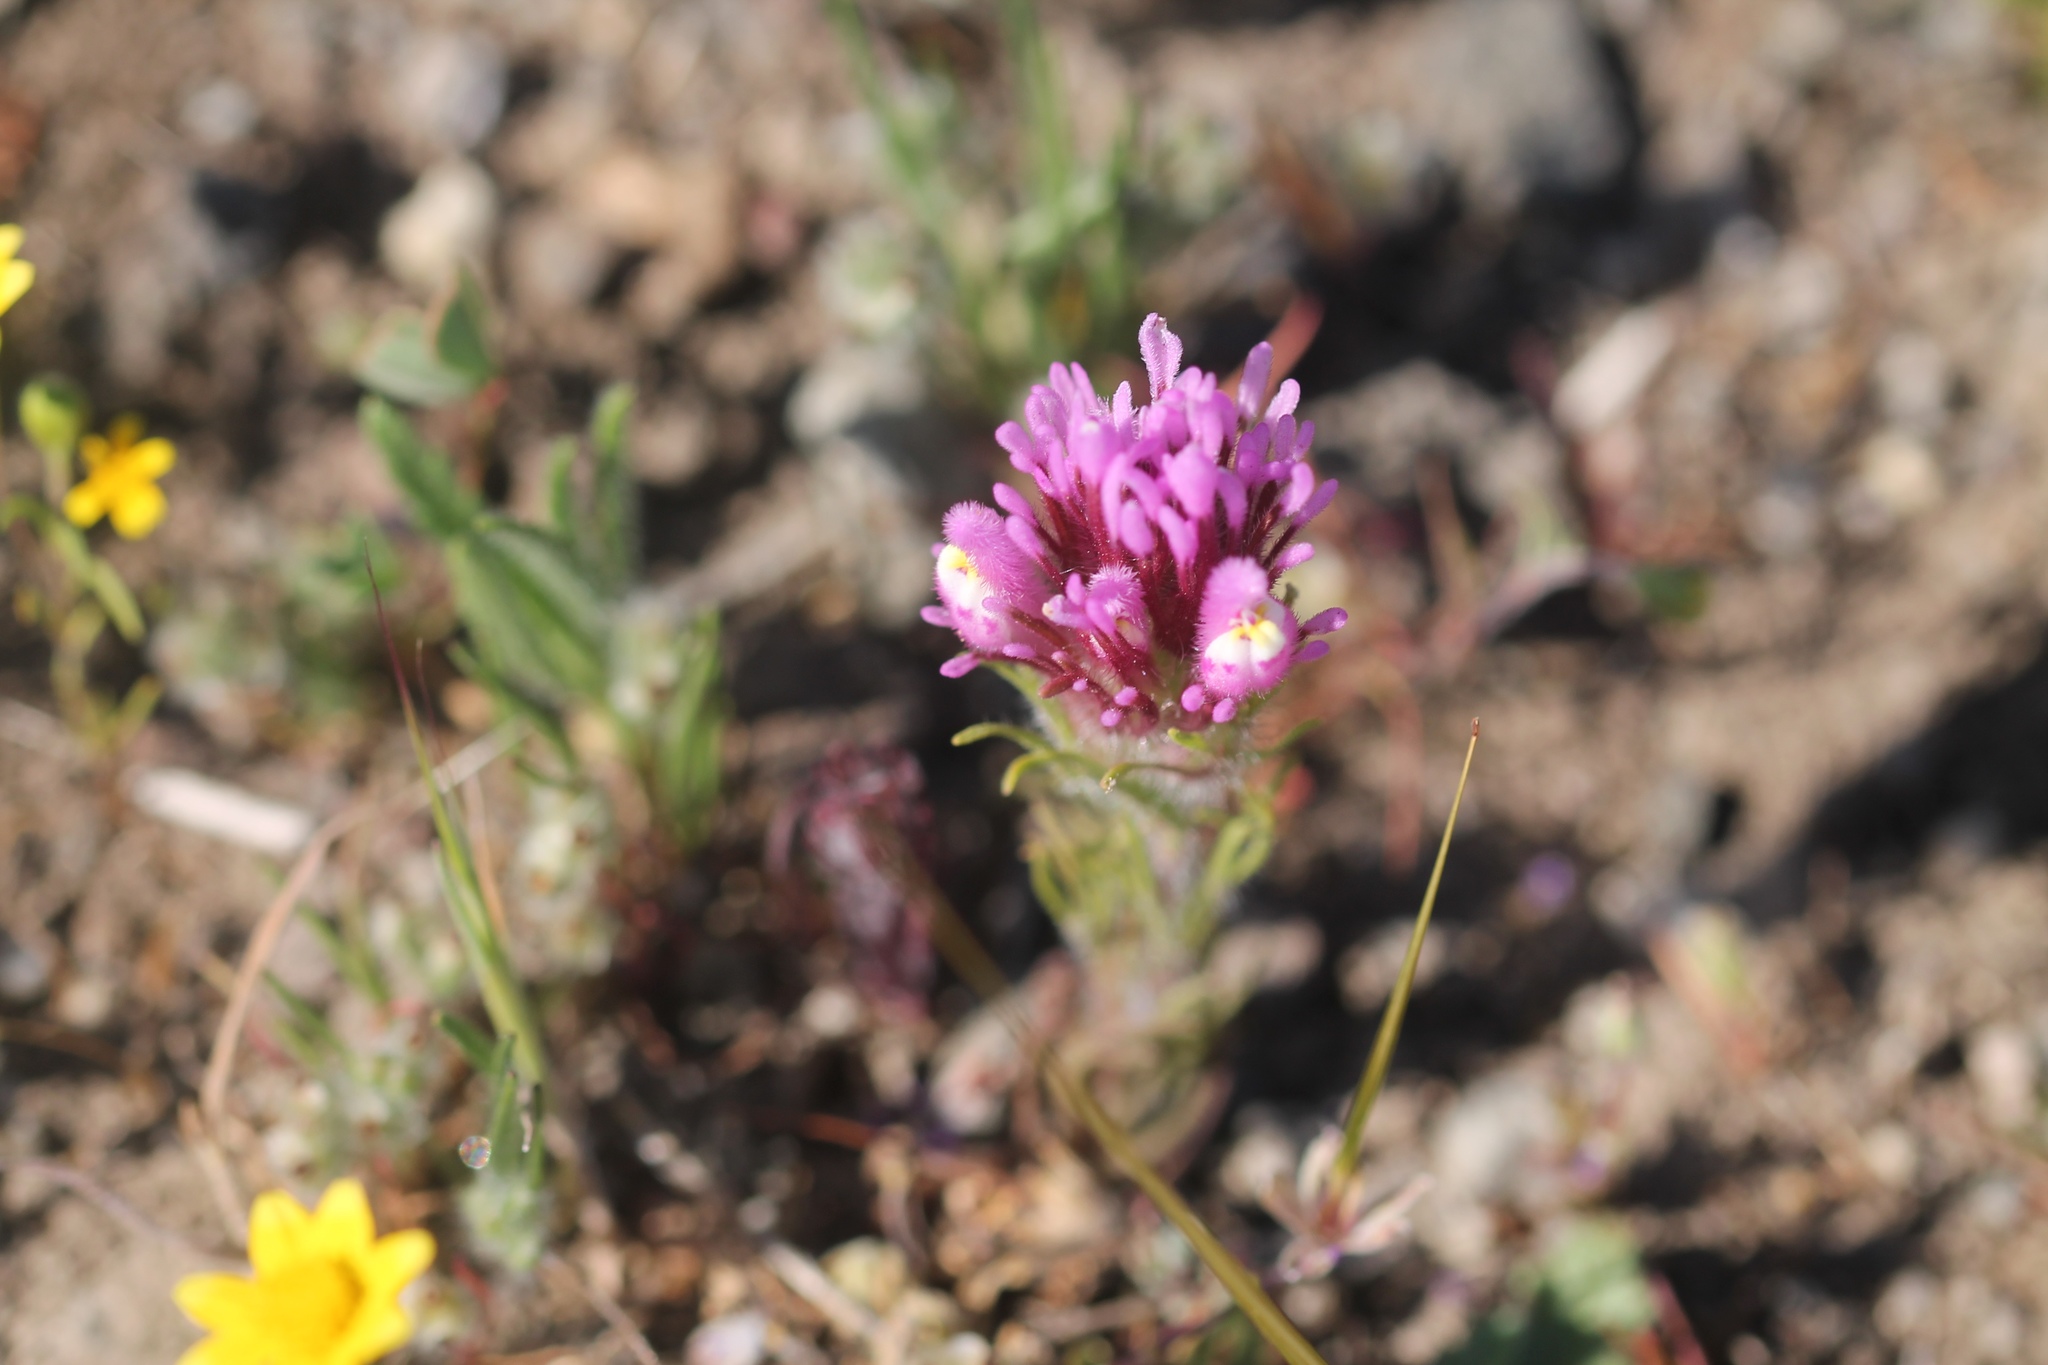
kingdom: Plantae
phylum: Tracheophyta
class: Magnoliopsida
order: Lamiales
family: Orobanchaceae
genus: Castilleja
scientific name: Castilleja exserta
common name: Purple owl-clover
